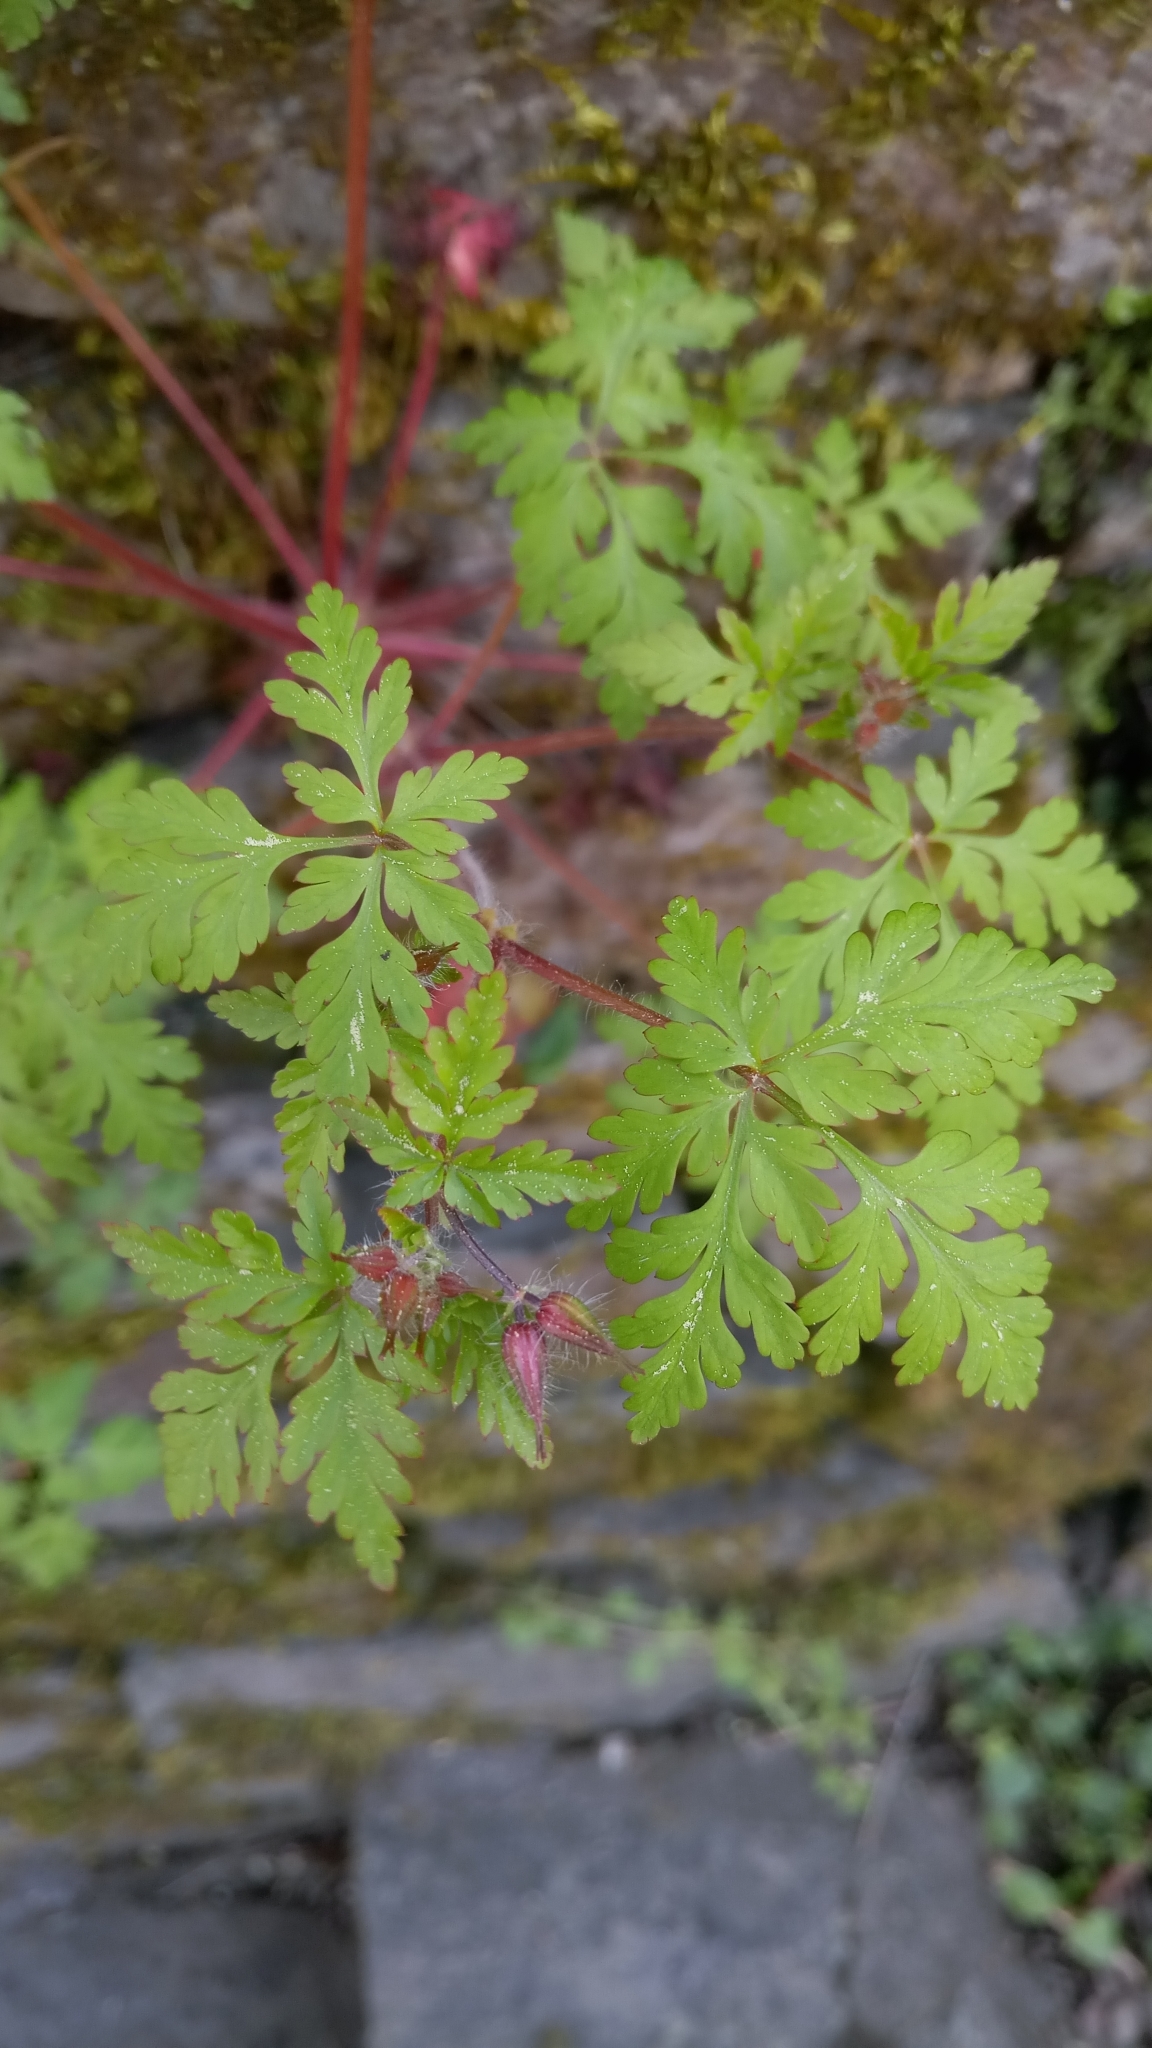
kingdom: Plantae
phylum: Tracheophyta
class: Magnoliopsida
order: Geraniales
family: Geraniaceae
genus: Geranium
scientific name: Geranium robertianum
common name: Herb-robert
